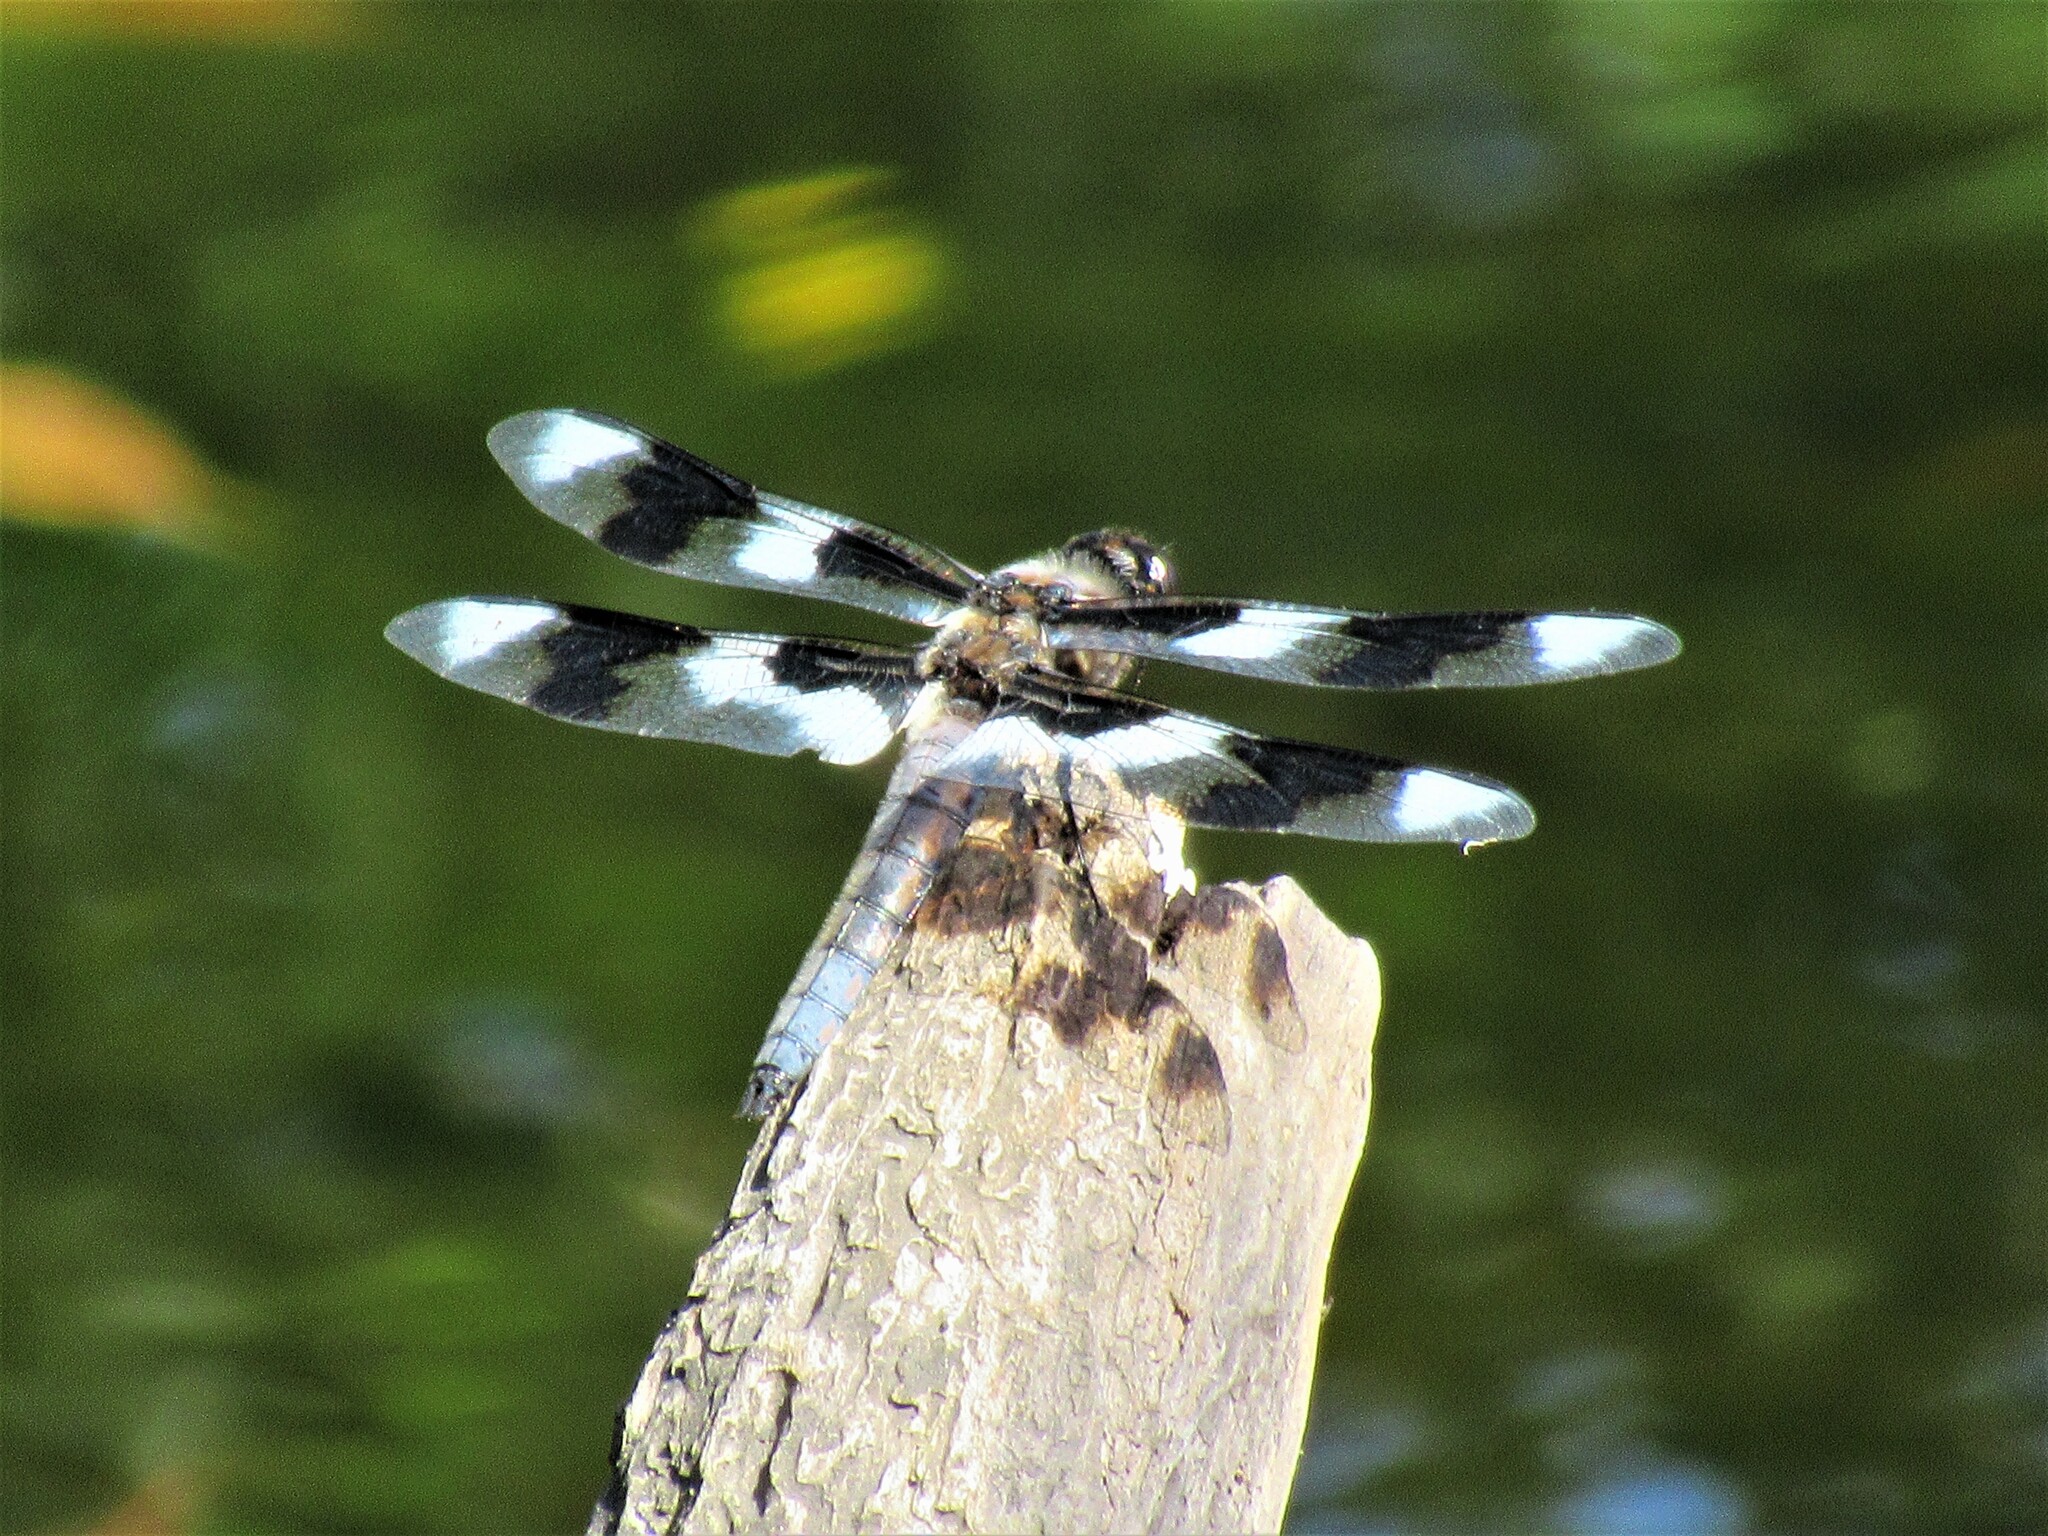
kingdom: Animalia
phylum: Arthropoda
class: Insecta
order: Odonata
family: Libellulidae
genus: Libellula
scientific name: Libellula forensis
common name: Eight-spotted skimmer
